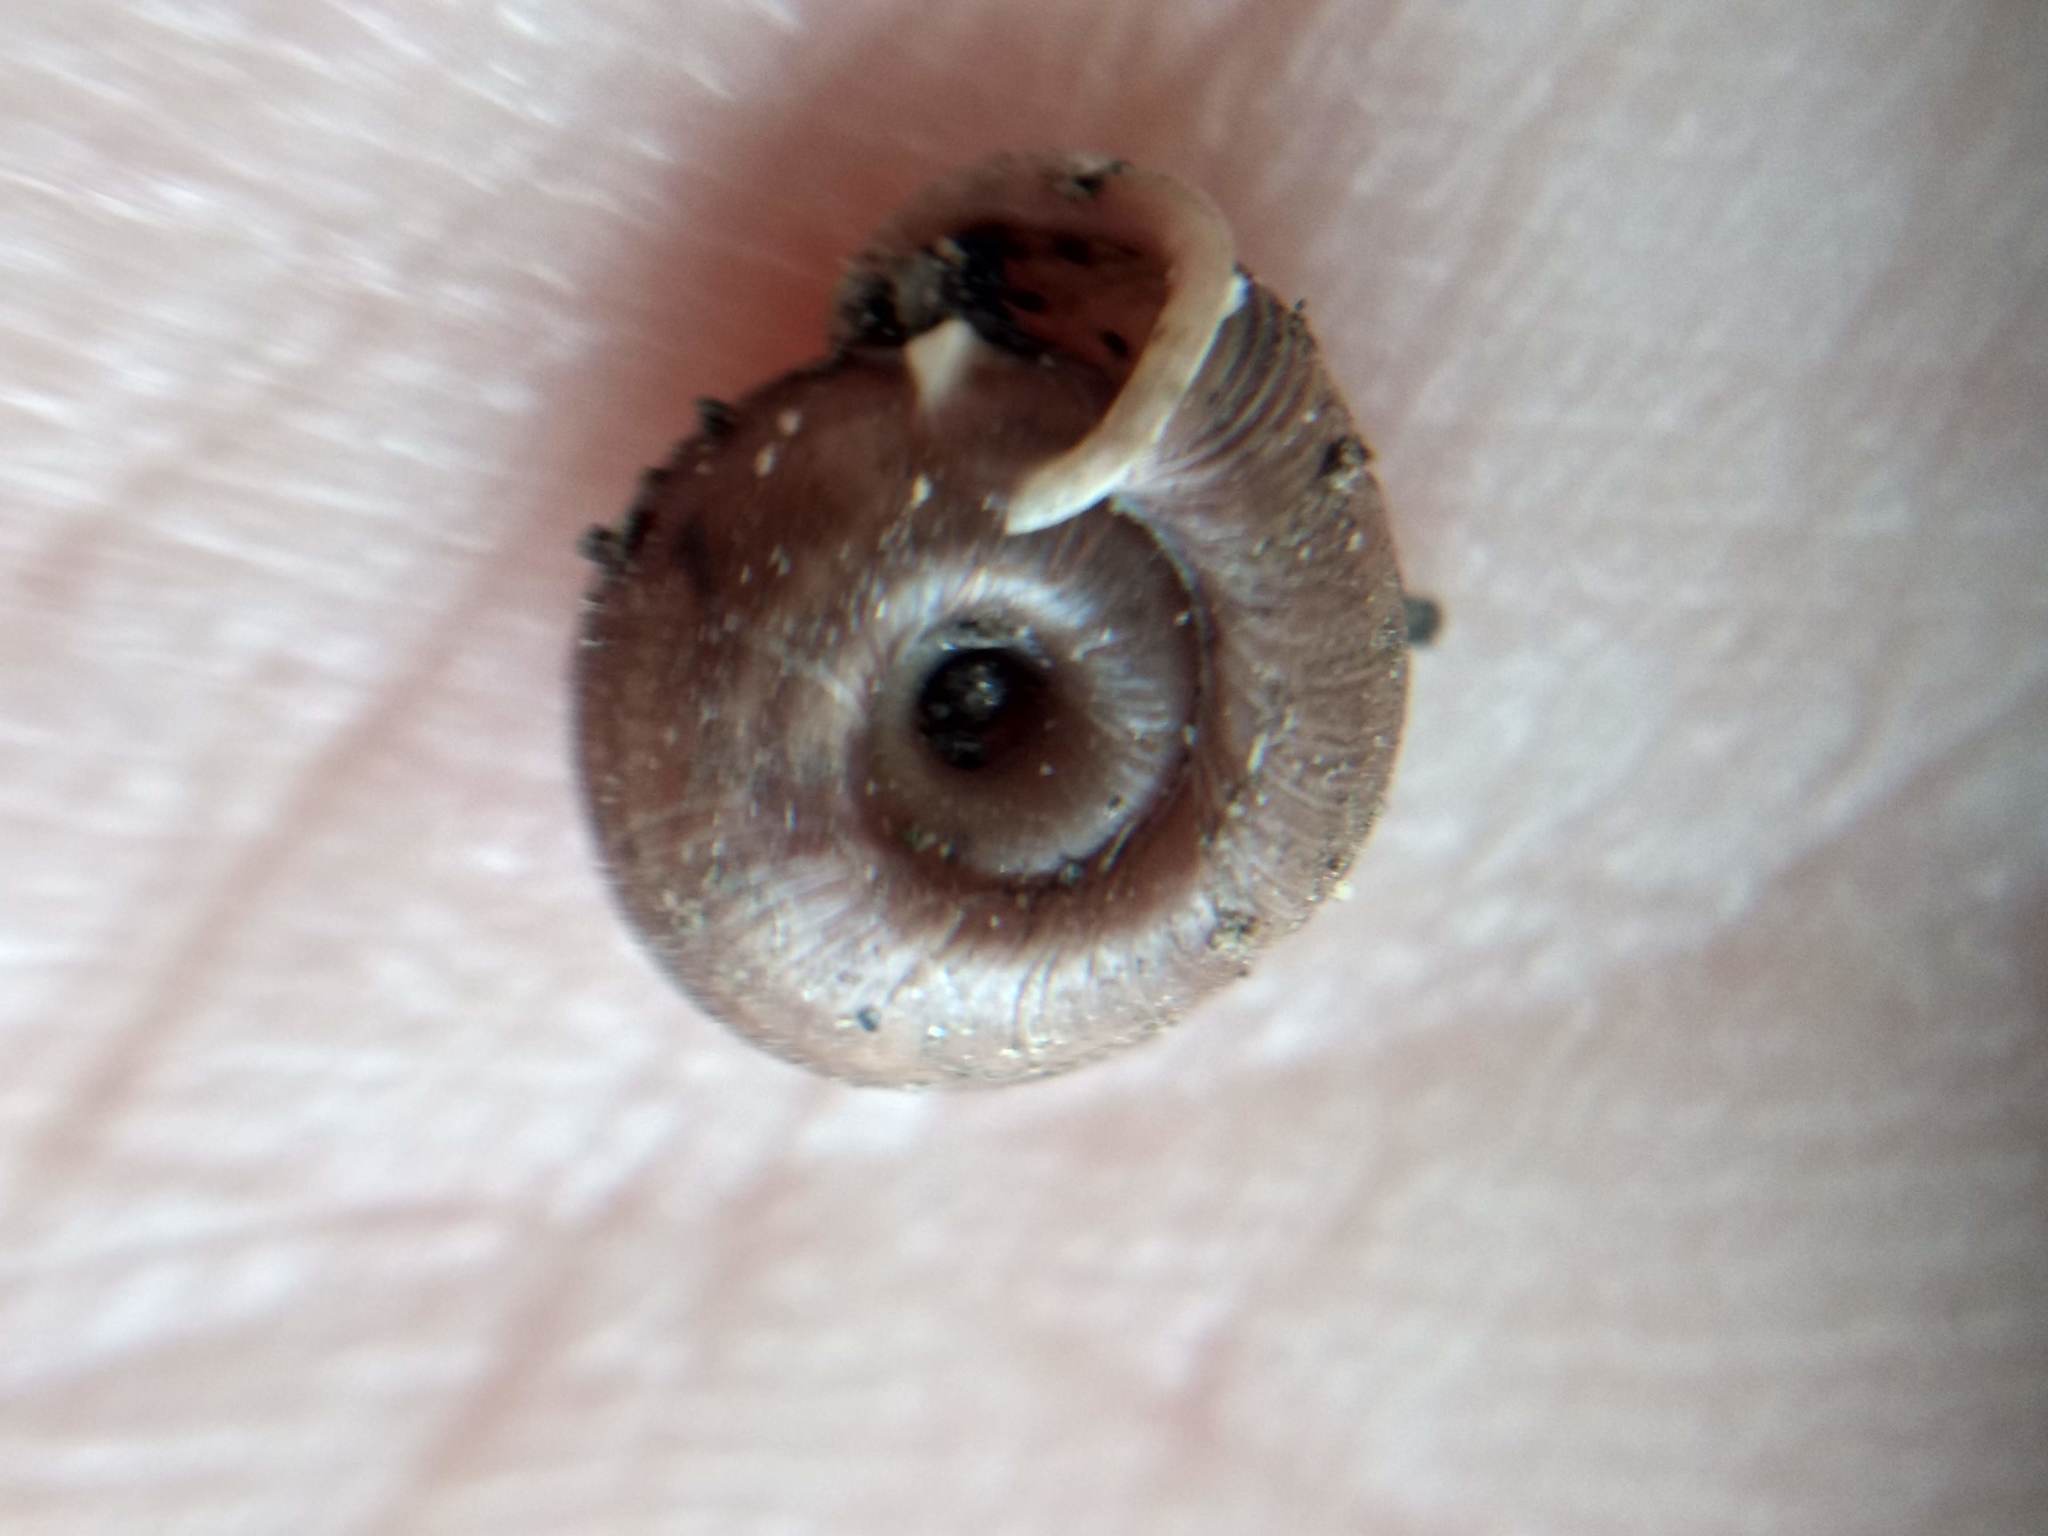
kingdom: Animalia
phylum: Mollusca
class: Gastropoda
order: Stylommatophora
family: Polygyridae
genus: Polygyra
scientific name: Polygyra cereolus
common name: Southern flatcone snail
